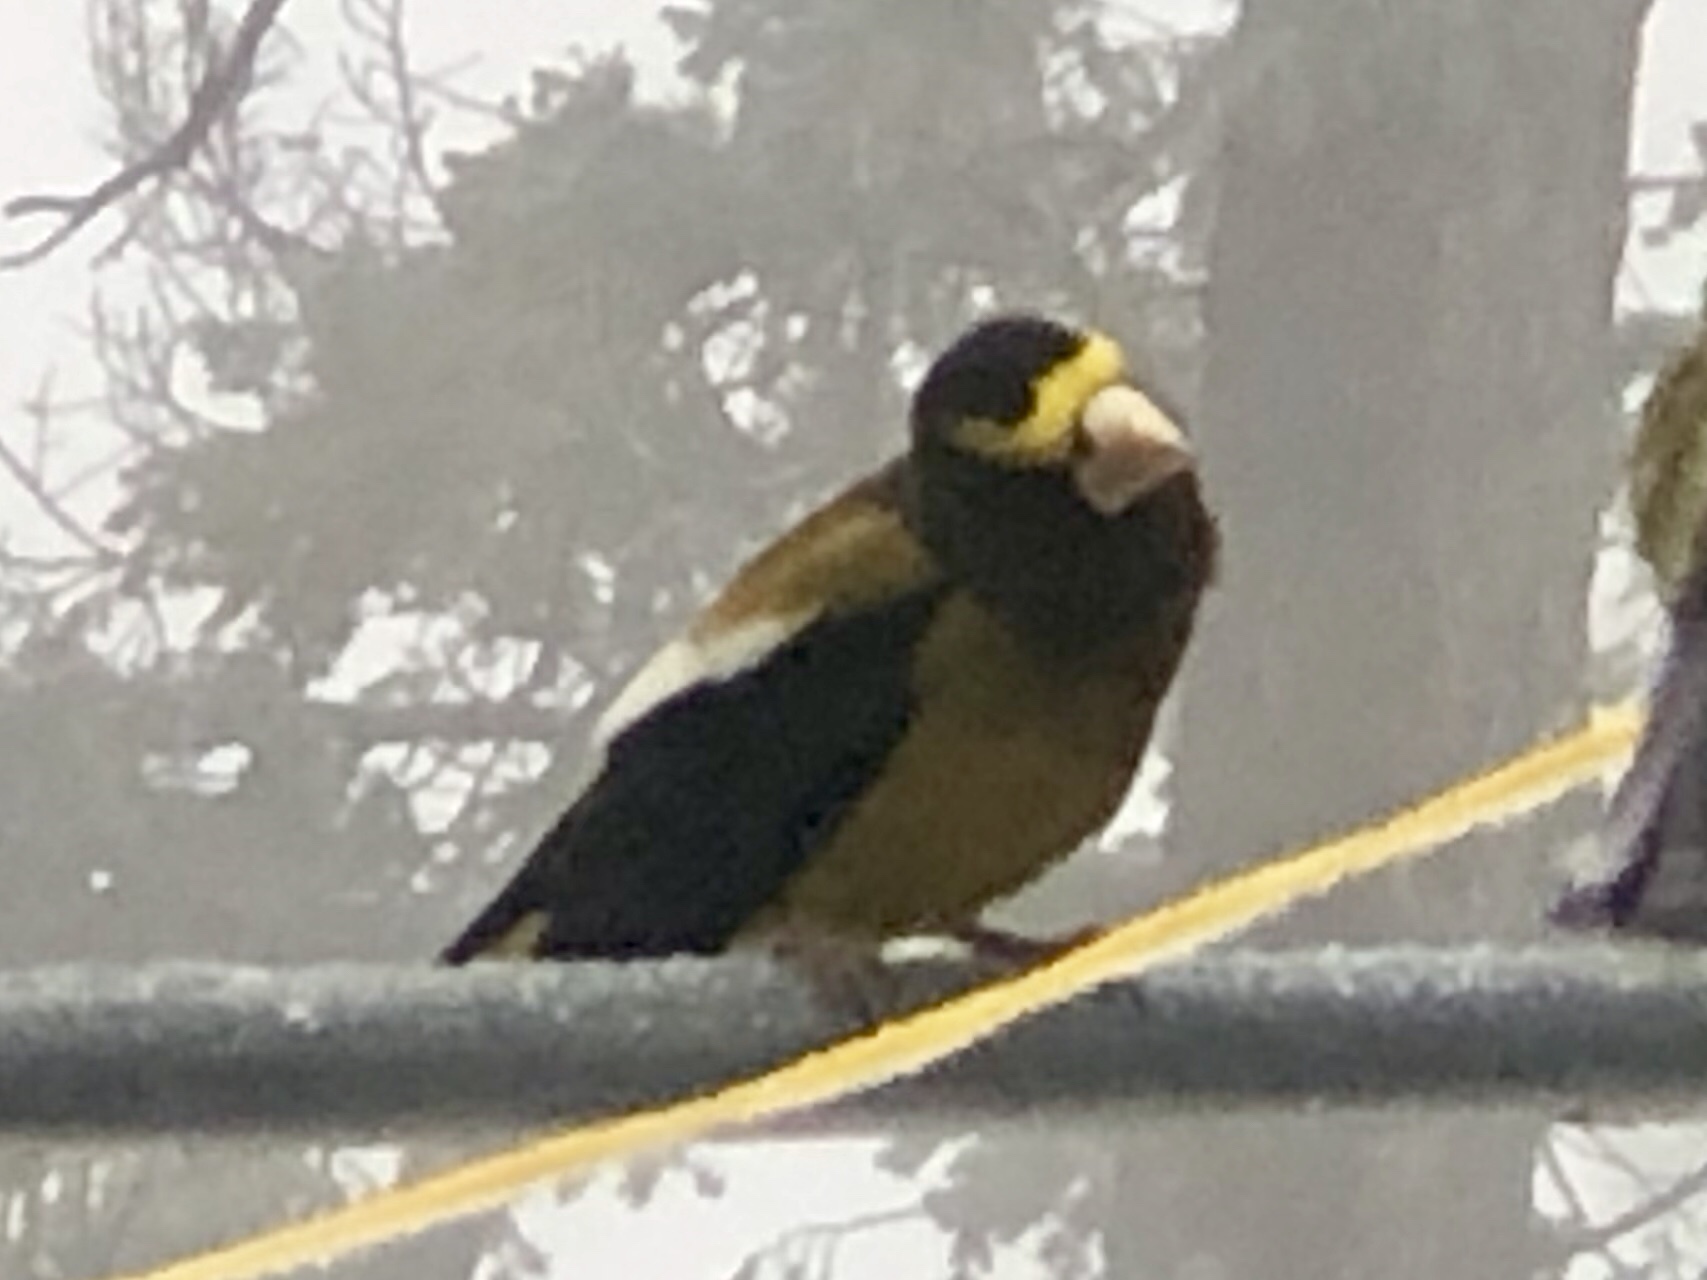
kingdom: Animalia
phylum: Chordata
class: Aves
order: Passeriformes
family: Fringillidae
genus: Hesperiphona
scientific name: Hesperiphona vespertina
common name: Evening grosbeak
